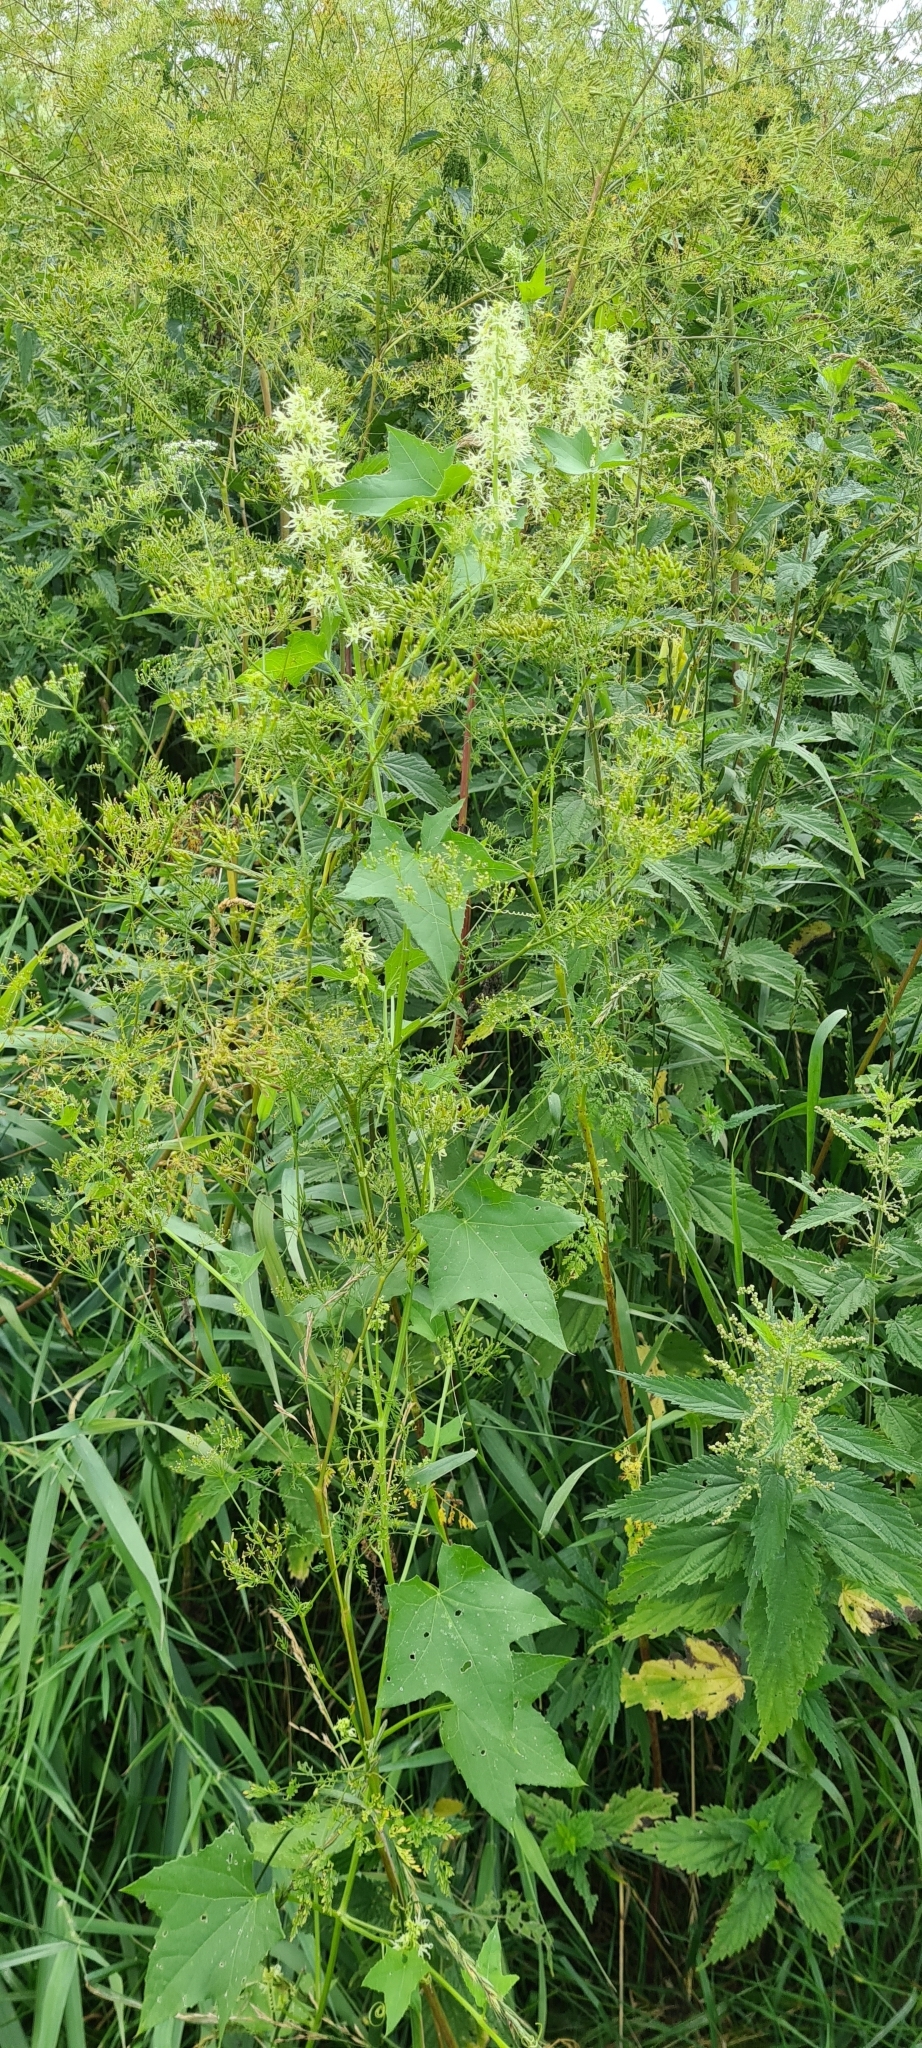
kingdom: Plantae
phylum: Tracheophyta
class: Magnoliopsida
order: Cucurbitales
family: Cucurbitaceae
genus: Echinocystis
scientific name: Echinocystis lobata
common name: Wild cucumber
